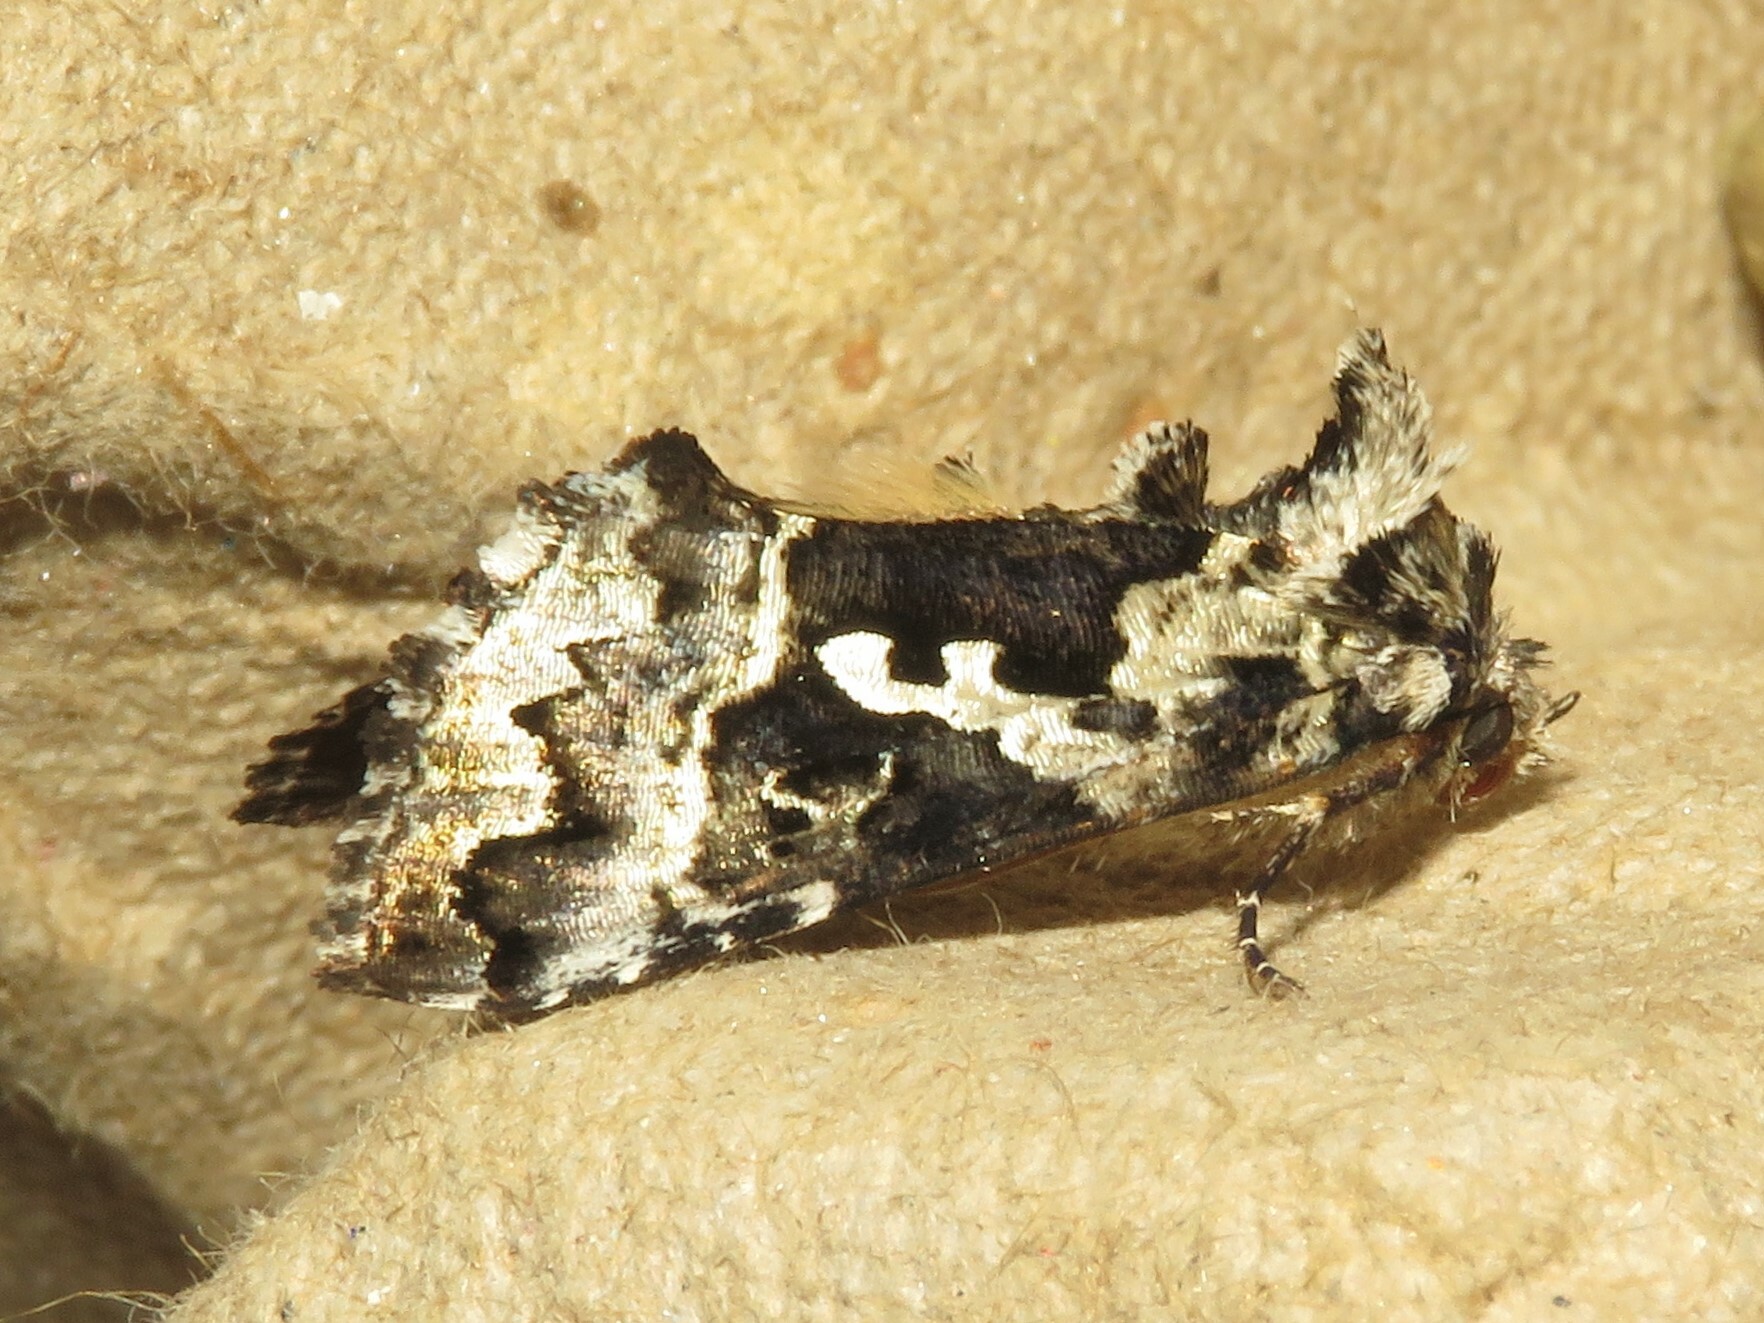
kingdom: Animalia
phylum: Arthropoda
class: Insecta
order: Lepidoptera
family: Noctuidae
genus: Syngrapha
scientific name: Syngrapha rectangula
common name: Angulated cutworm
